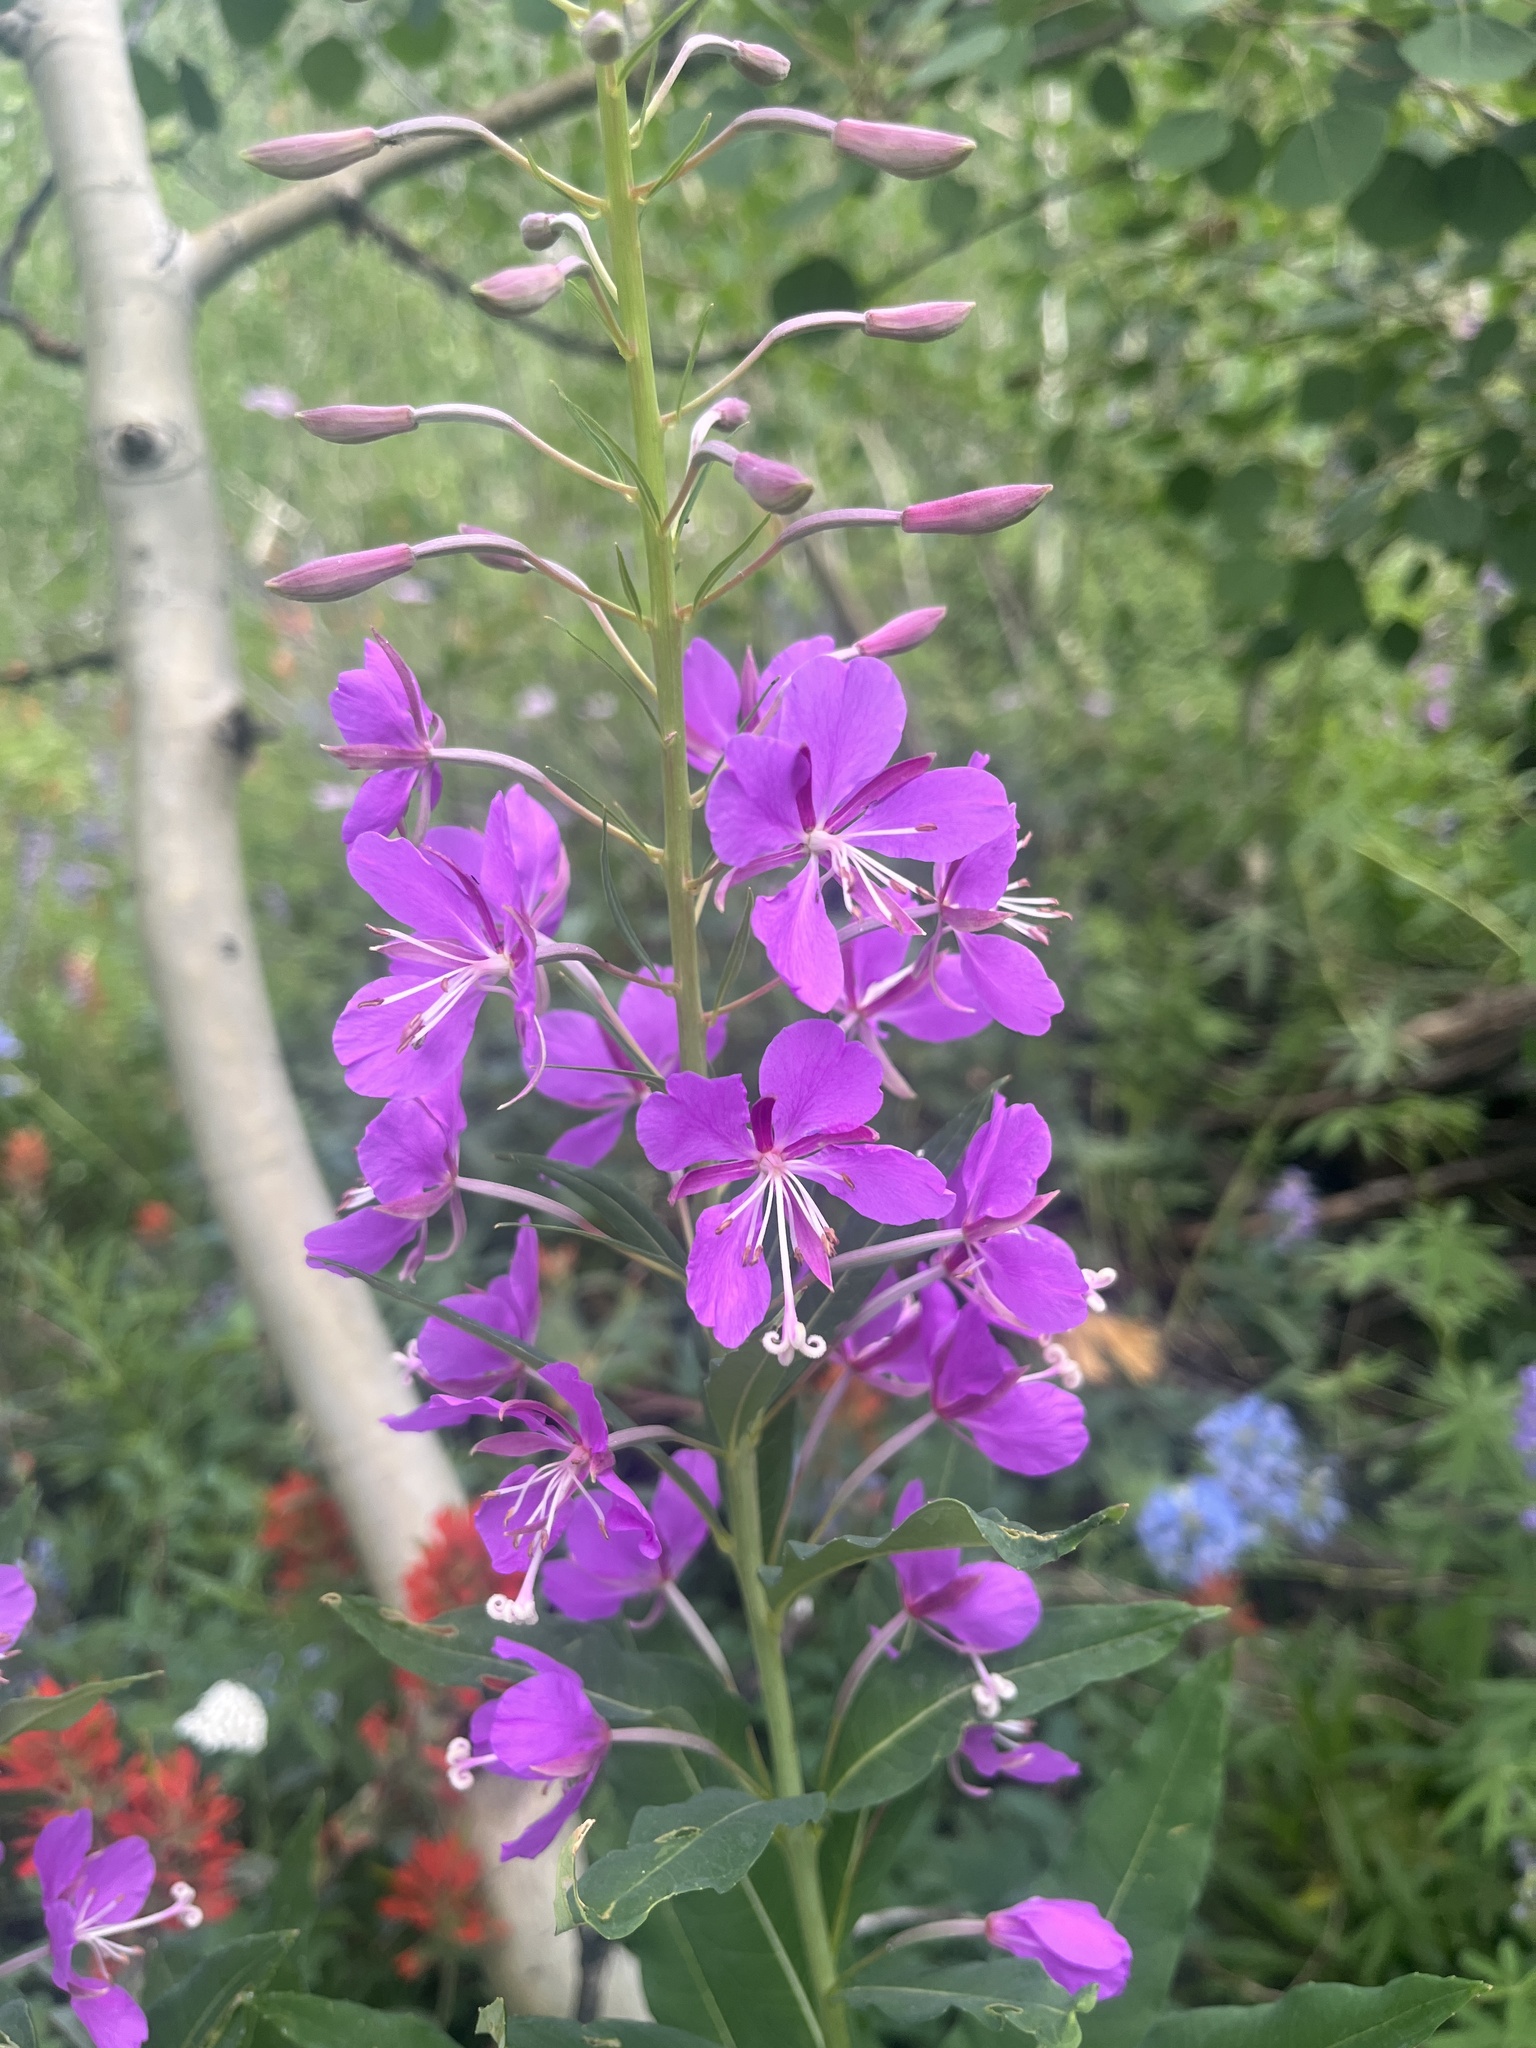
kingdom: Plantae
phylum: Tracheophyta
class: Magnoliopsida
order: Myrtales
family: Onagraceae
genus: Chamaenerion
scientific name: Chamaenerion angustifolium
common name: Fireweed
